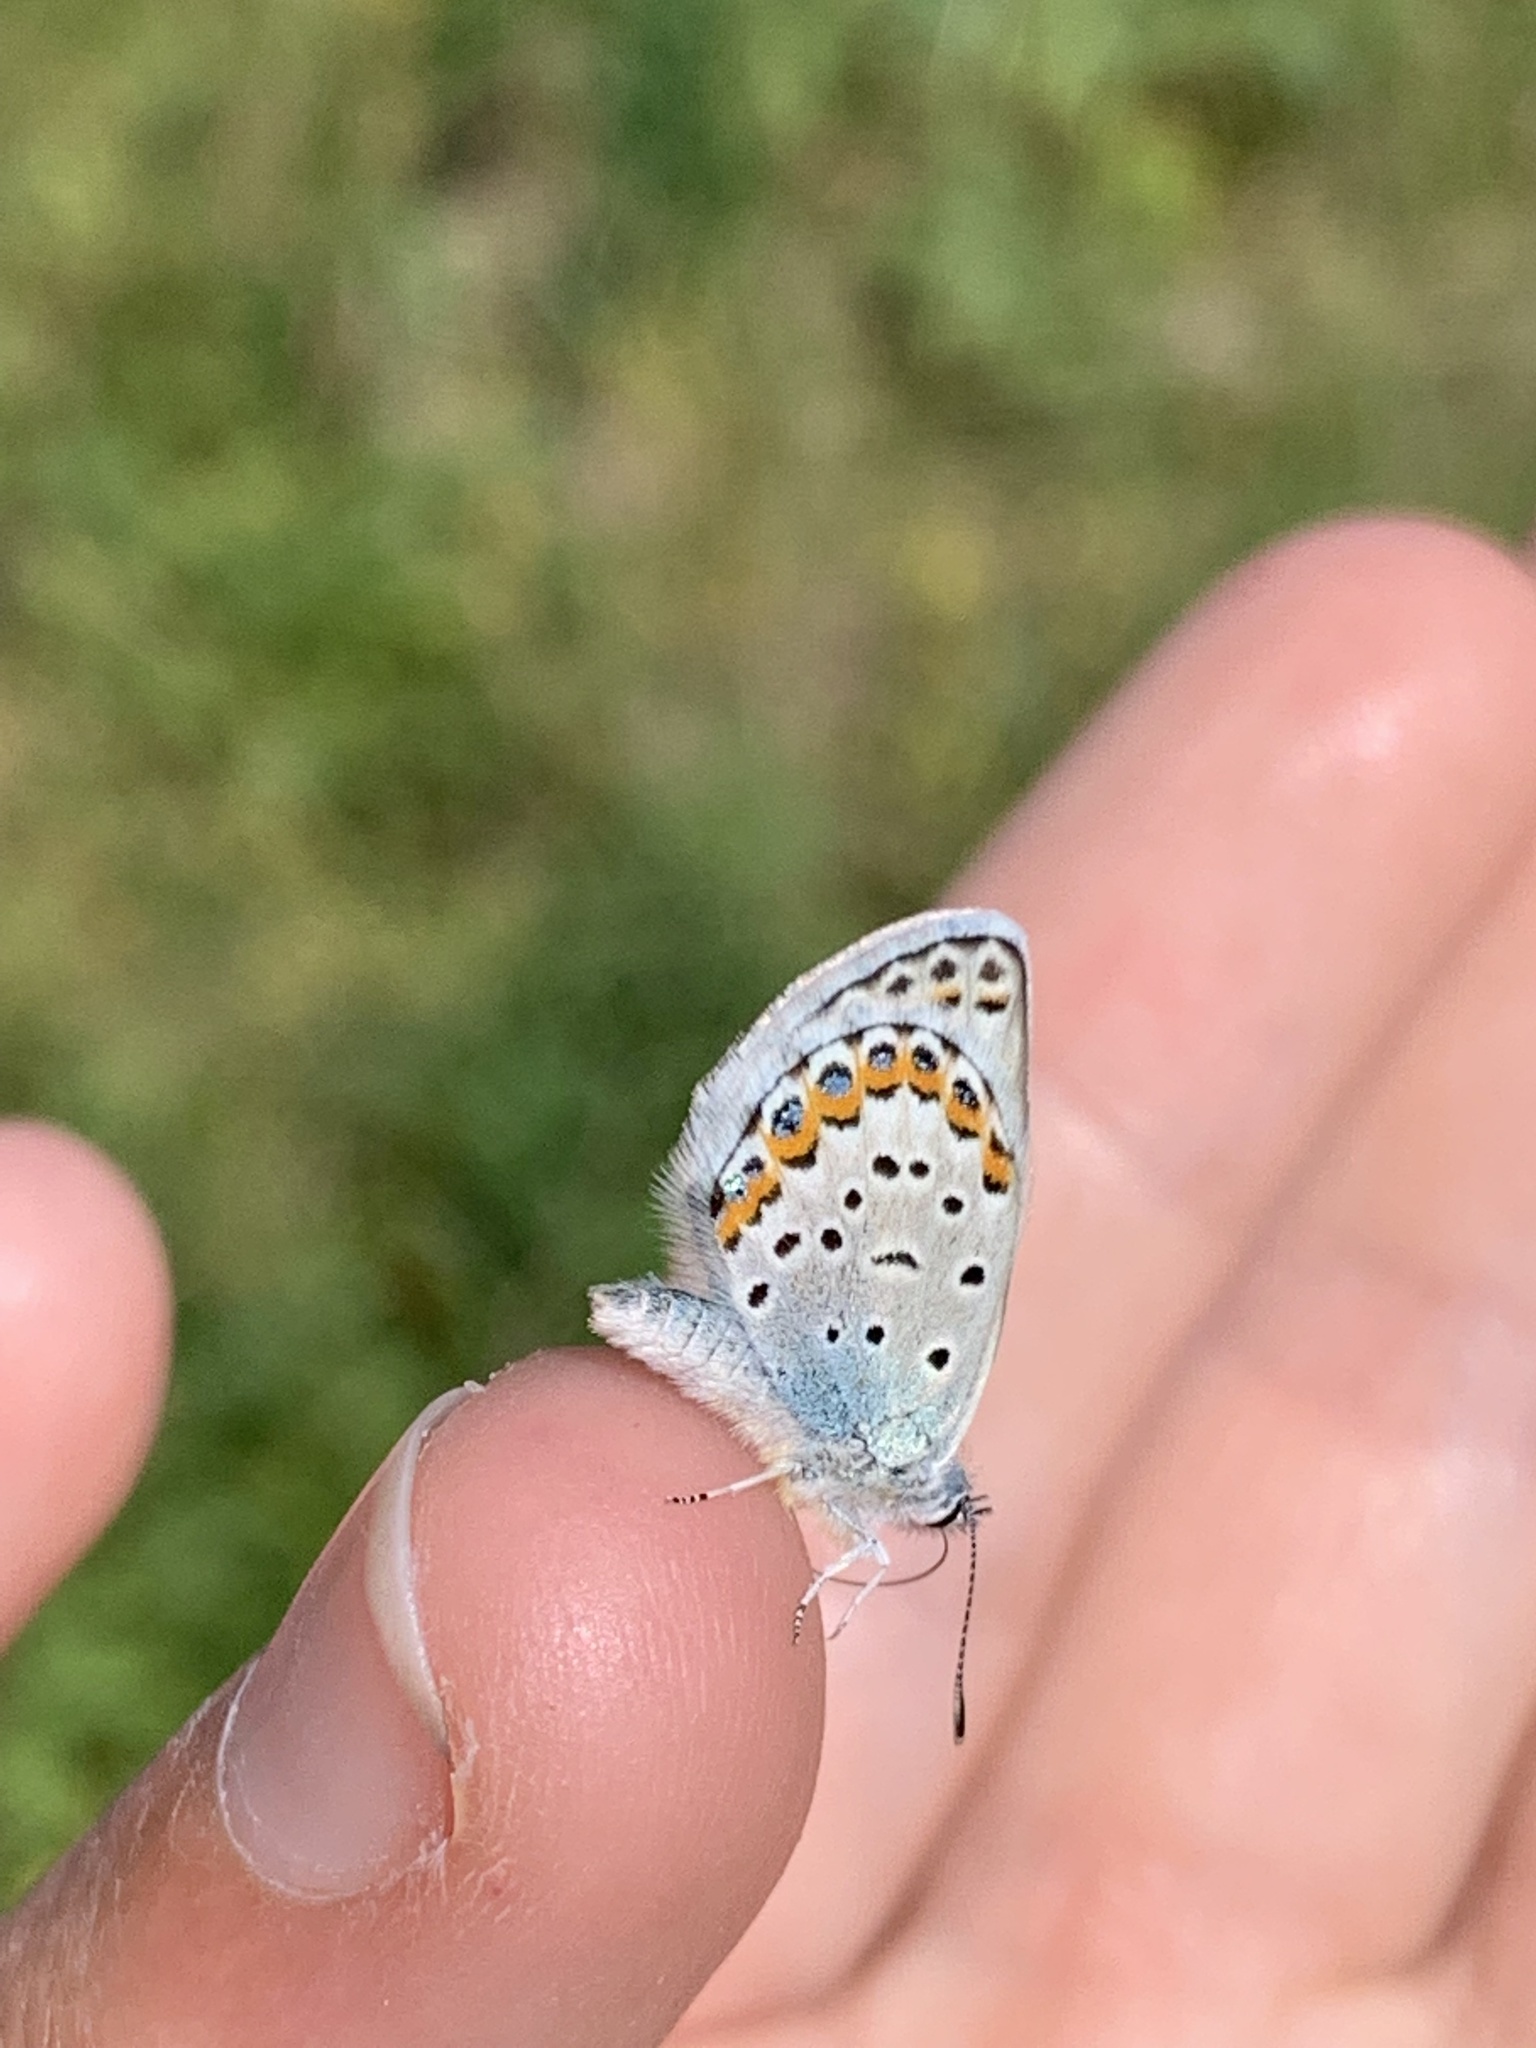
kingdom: Animalia
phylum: Arthropoda
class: Insecta
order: Lepidoptera
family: Lycaenidae
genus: Lycaeides
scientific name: Lycaeides melissa
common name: Melissa blue
